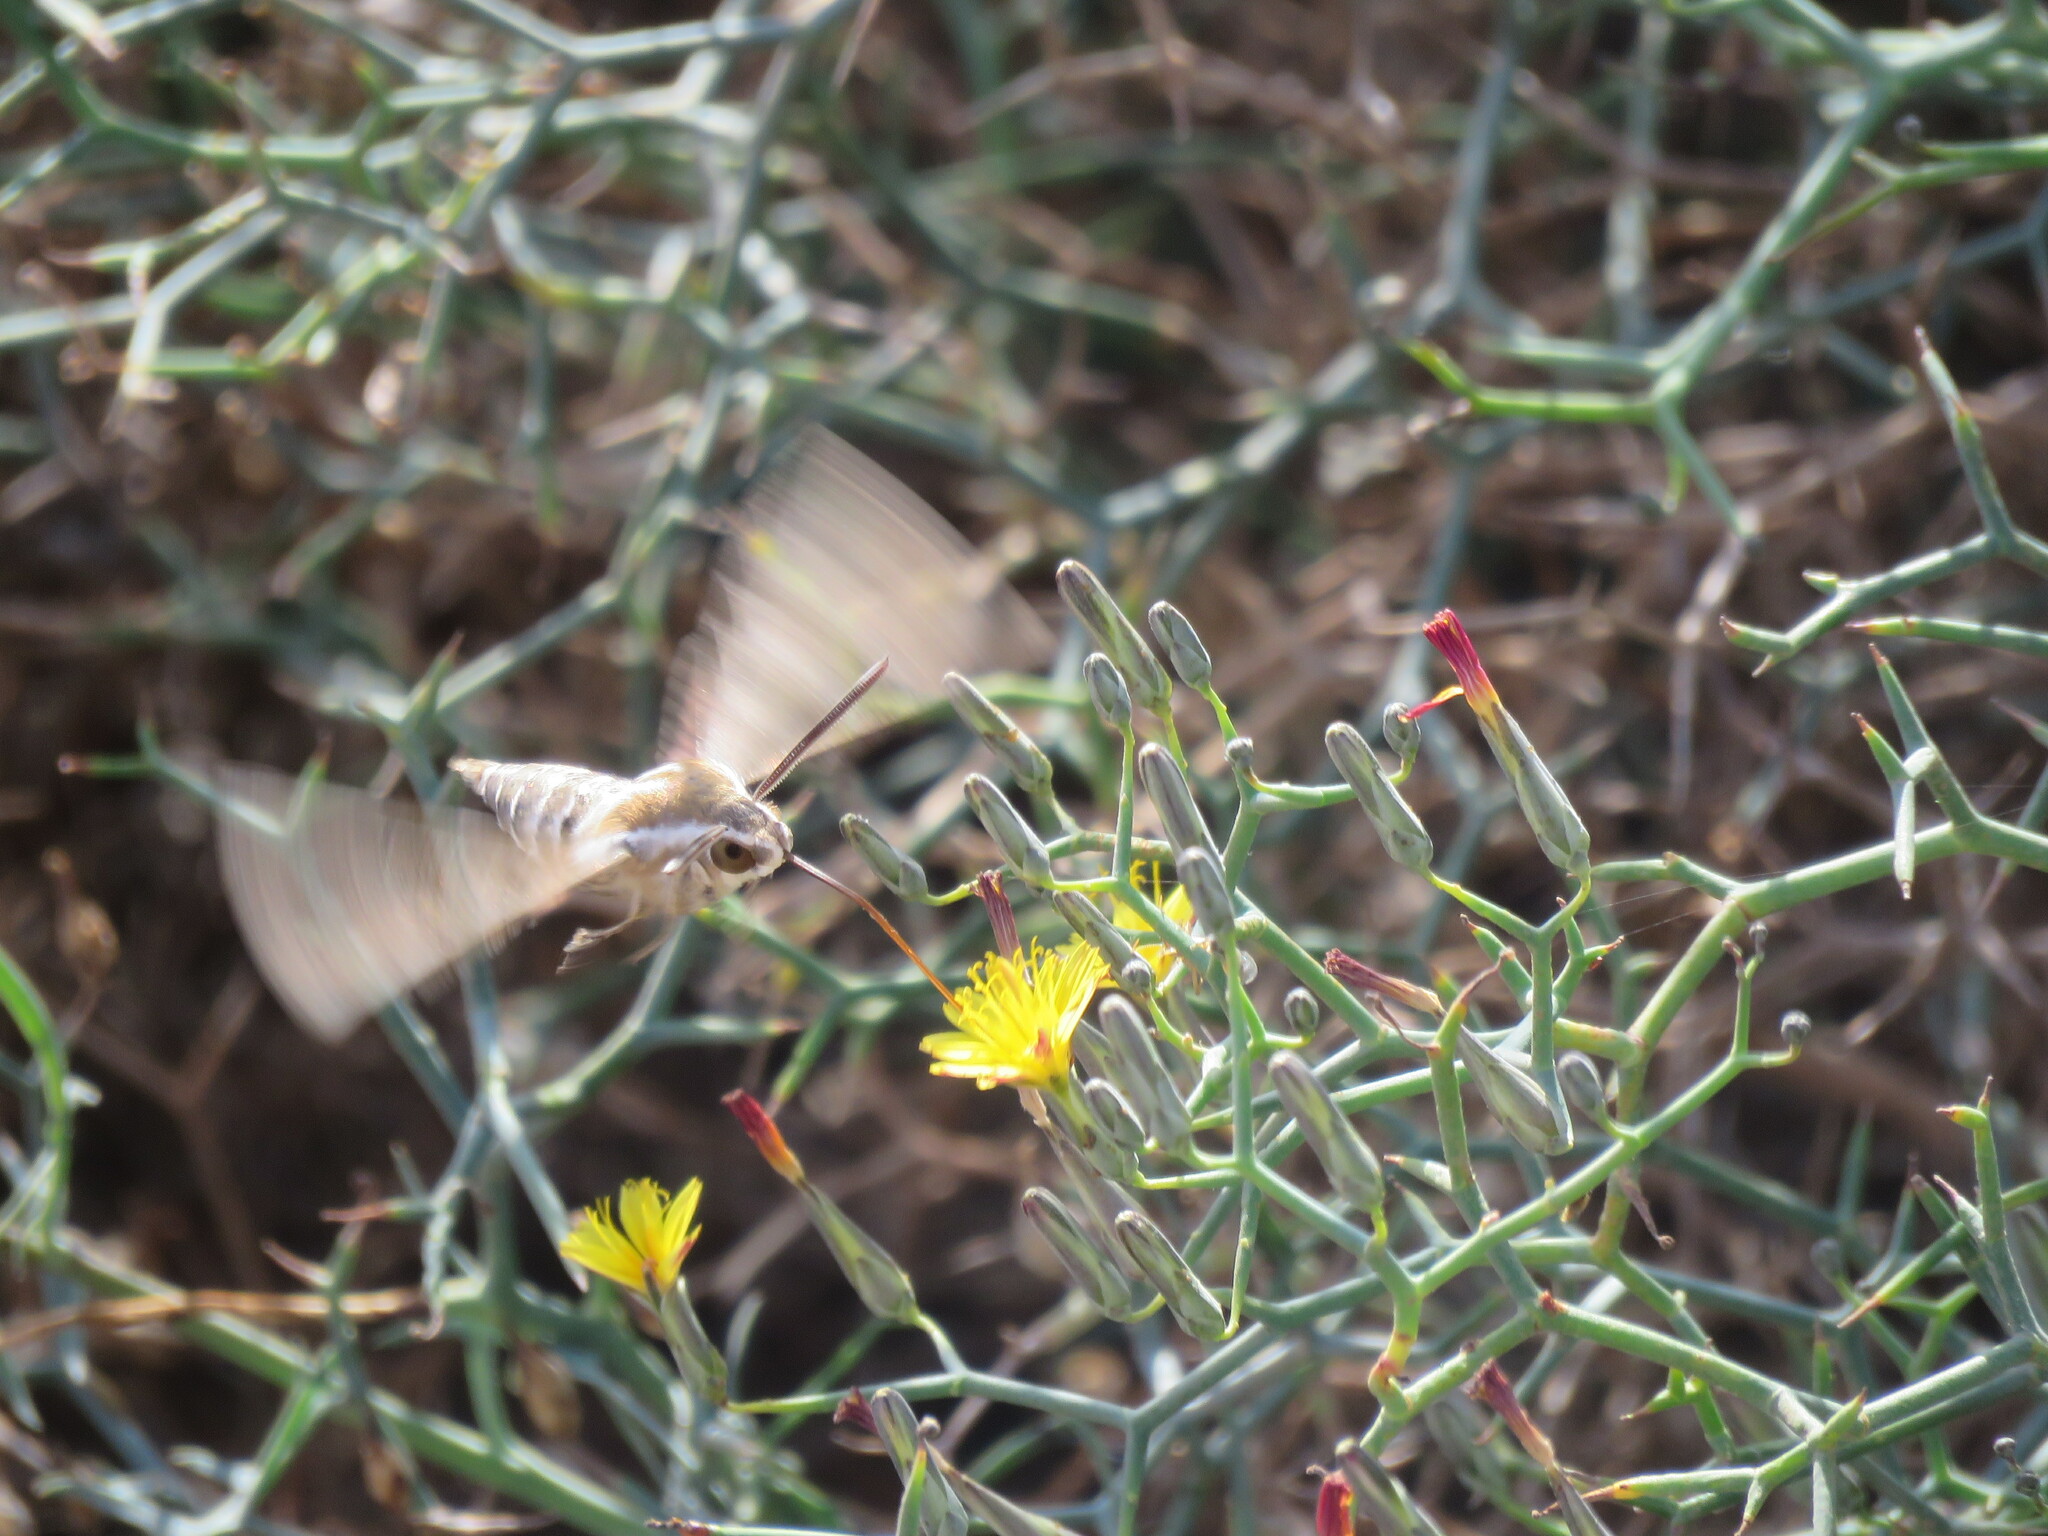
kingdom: Animalia
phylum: Arthropoda
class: Insecta
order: Lepidoptera
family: Sphingidae
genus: Hyles
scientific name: Hyles livornica
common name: Striped hawk-moth
